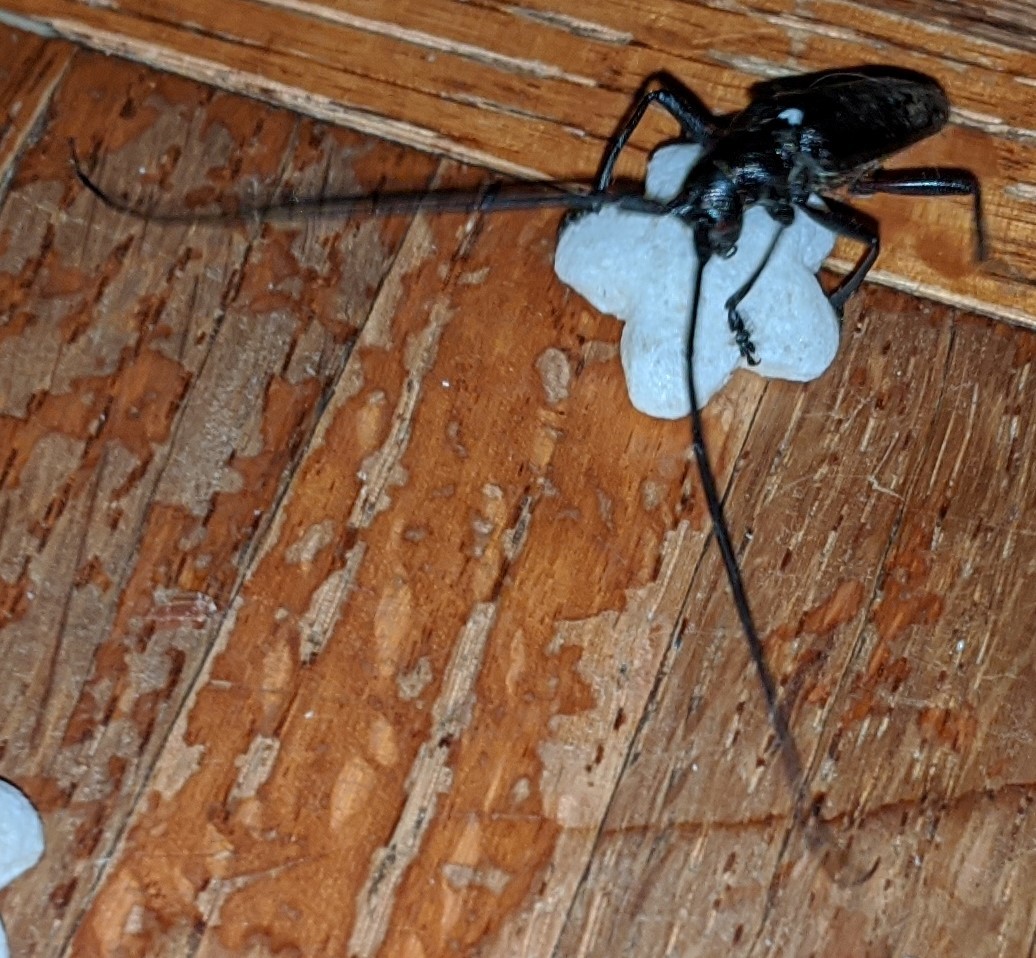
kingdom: Animalia
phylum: Arthropoda
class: Insecta
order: Coleoptera
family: Cerambycidae
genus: Monochamus
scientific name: Monochamus scutellatus
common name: White-spotted sawyer beetle
